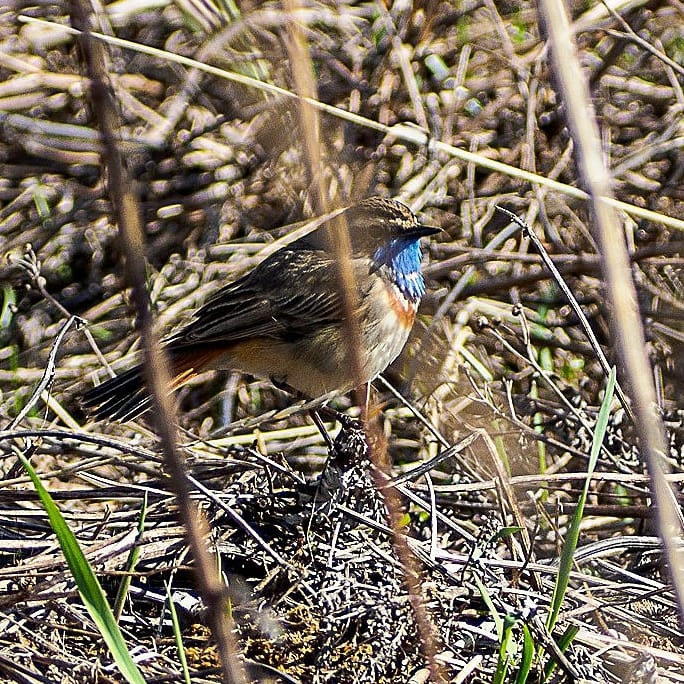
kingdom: Animalia
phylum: Chordata
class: Aves
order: Passeriformes
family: Muscicapidae
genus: Luscinia
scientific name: Luscinia svecica
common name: Bluethroat
